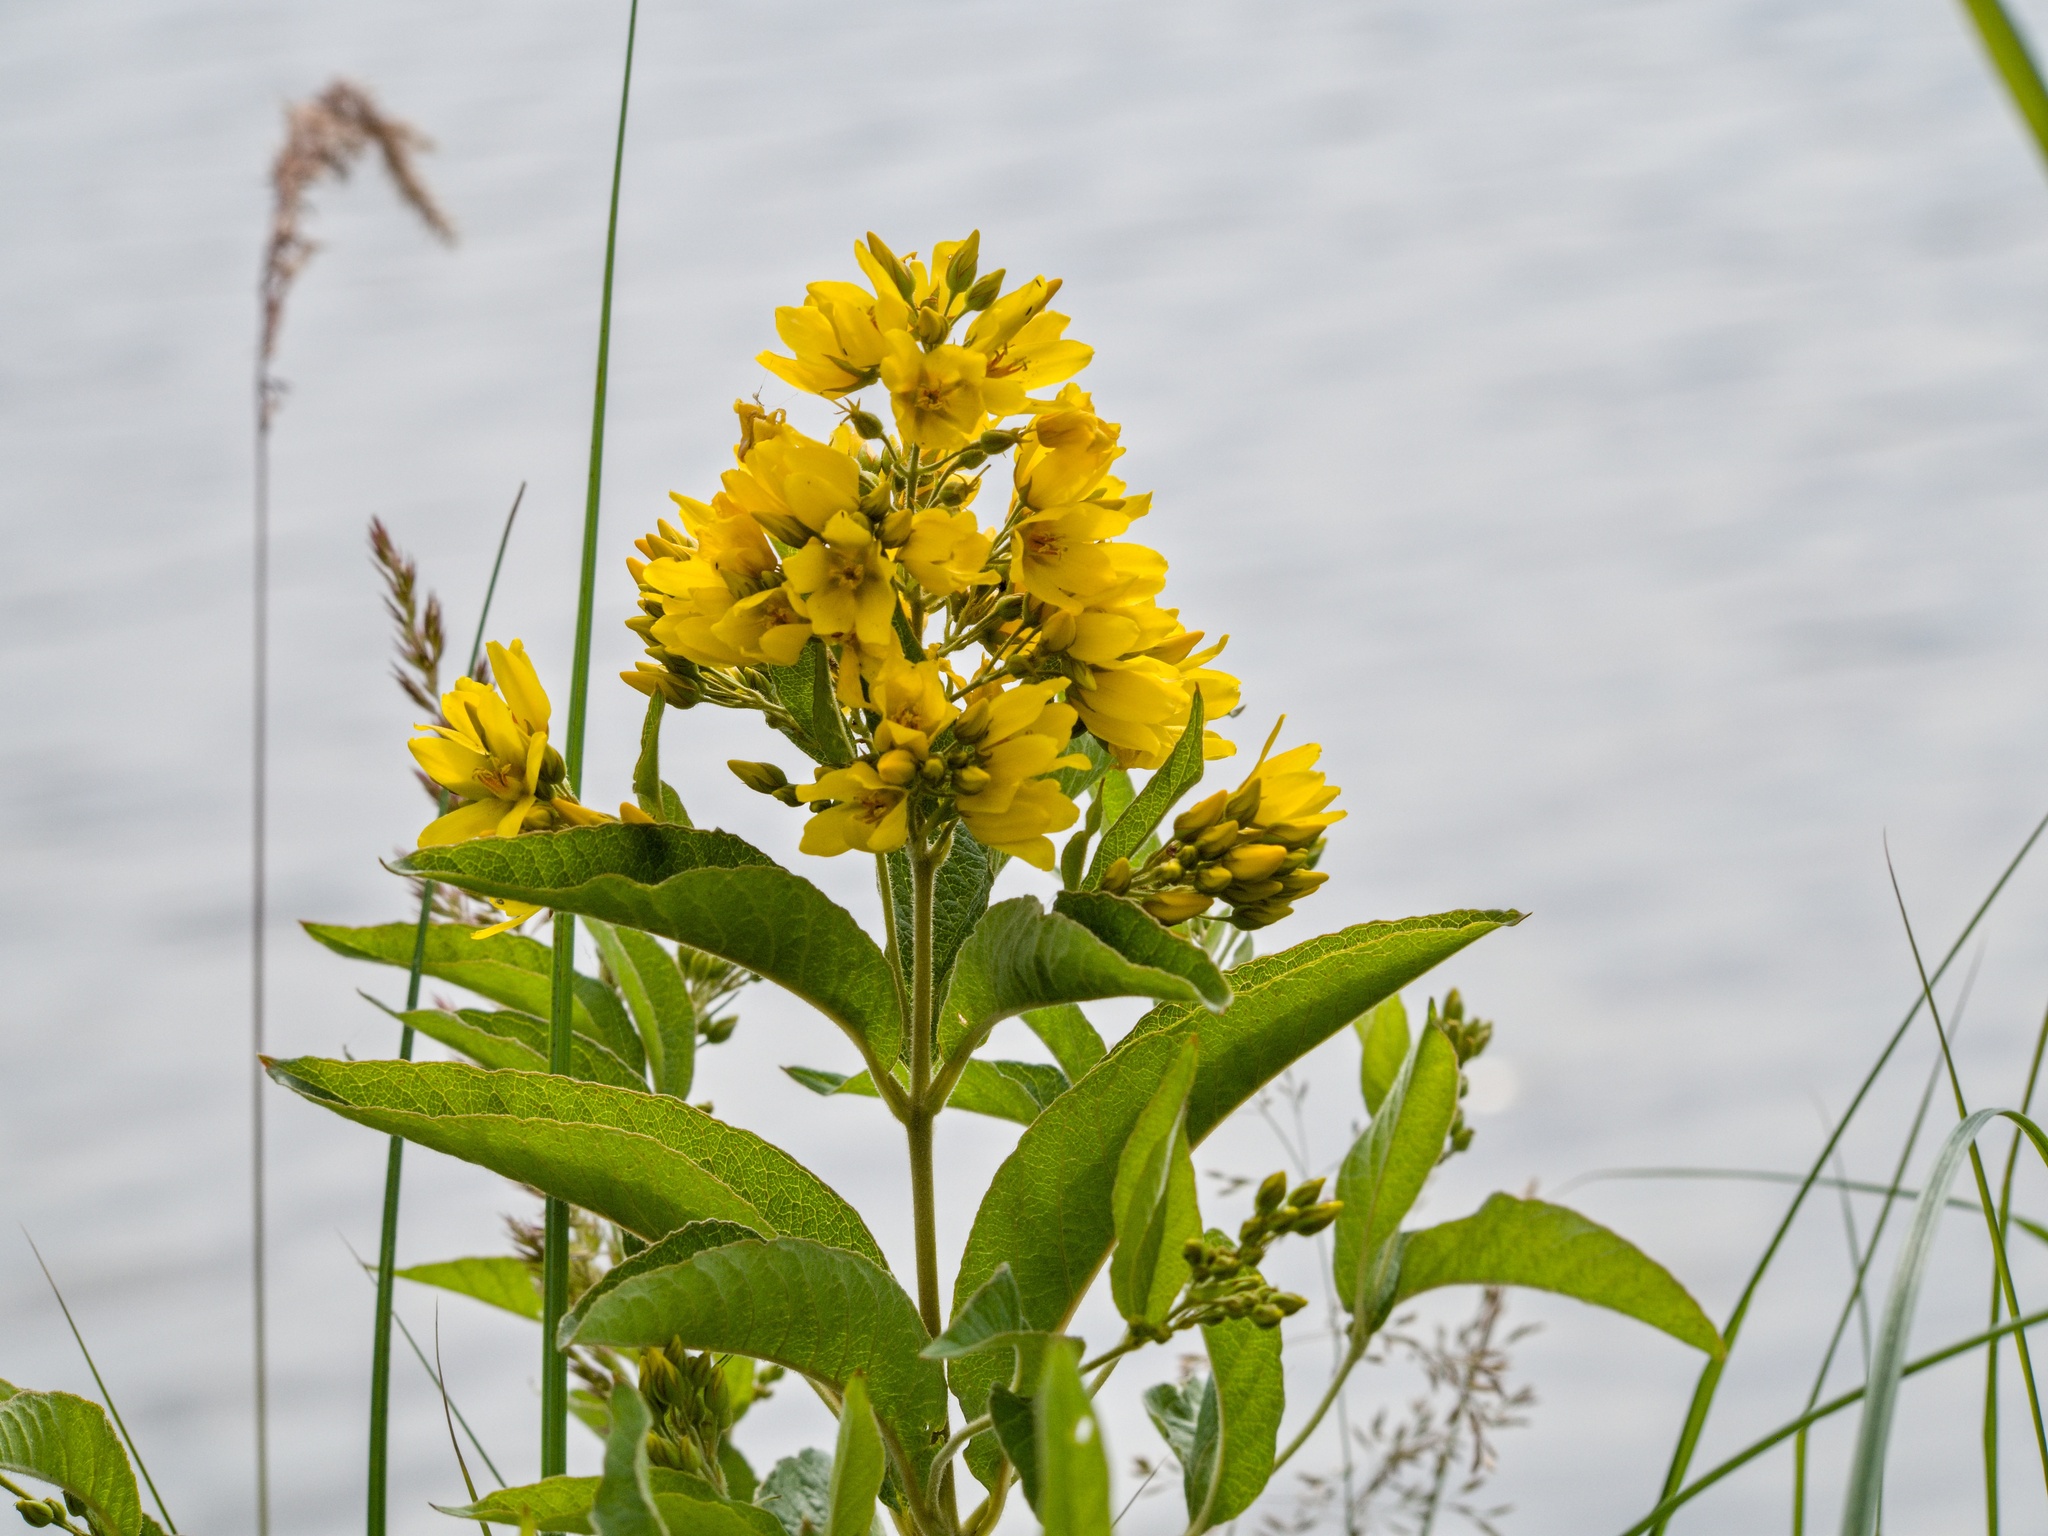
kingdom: Plantae
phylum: Tracheophyta
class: Magnoliopsida
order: Ericales
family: Primulaceae
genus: Lysimachia
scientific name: Lysimachia vulgaris
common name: Yellow loosestrife
